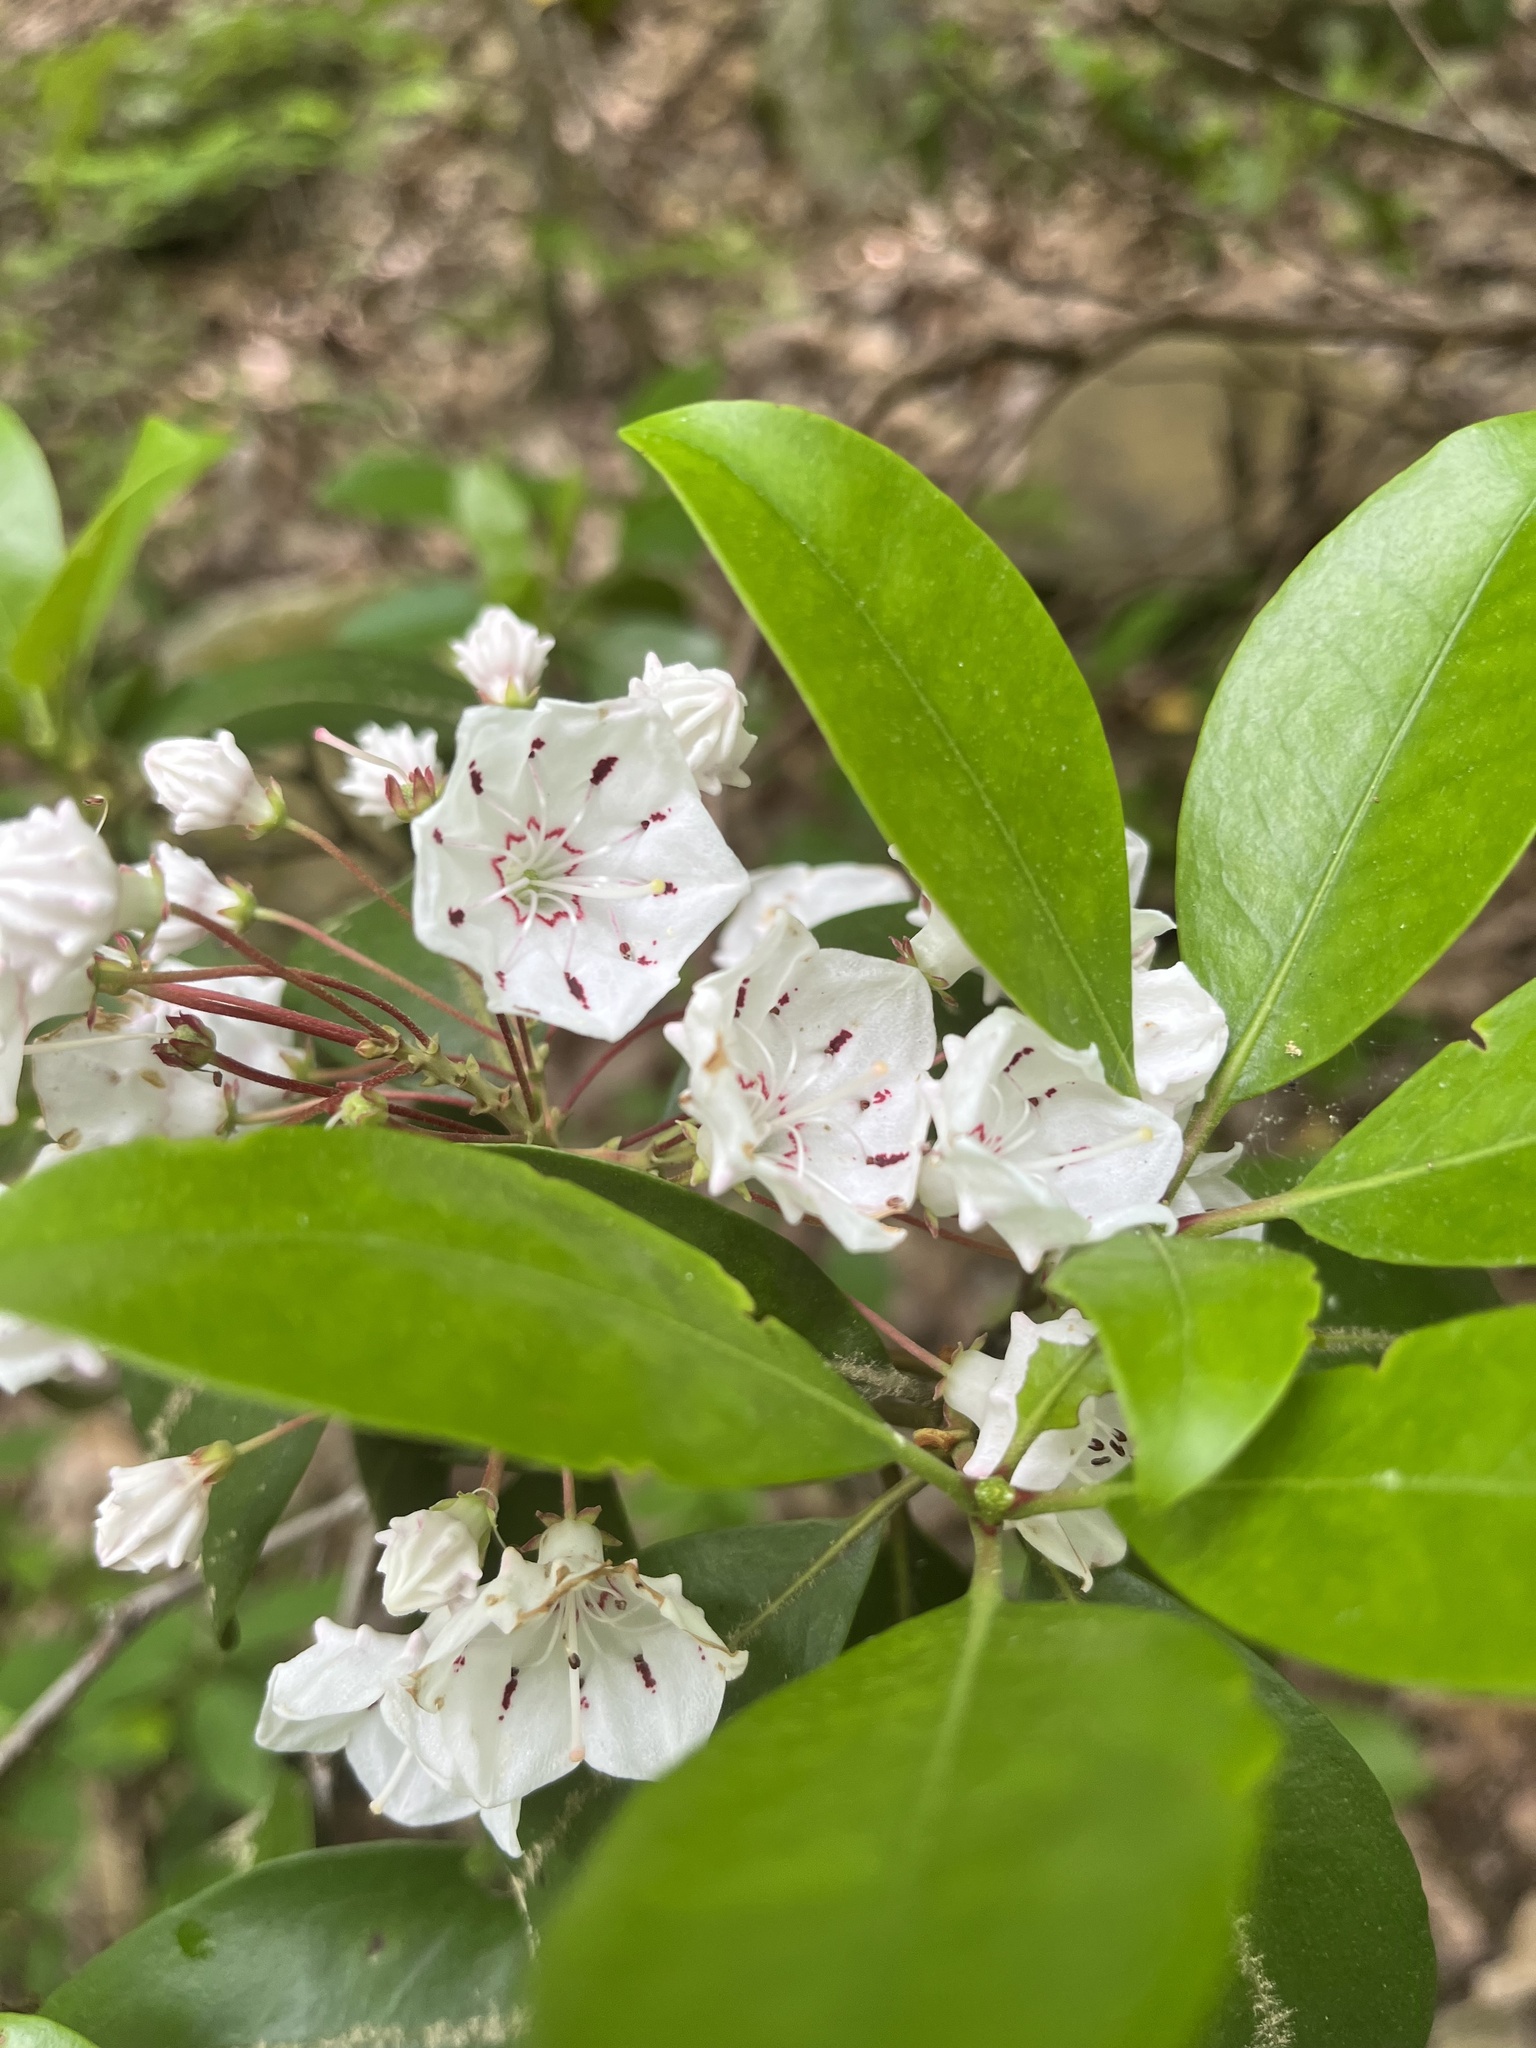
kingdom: Plantae
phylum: Tracheophyta
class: Magnoliopsida
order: Ericales
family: Ericaceae
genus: Kalmia
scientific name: Kalmia latifolia
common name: Mountain-laurel
